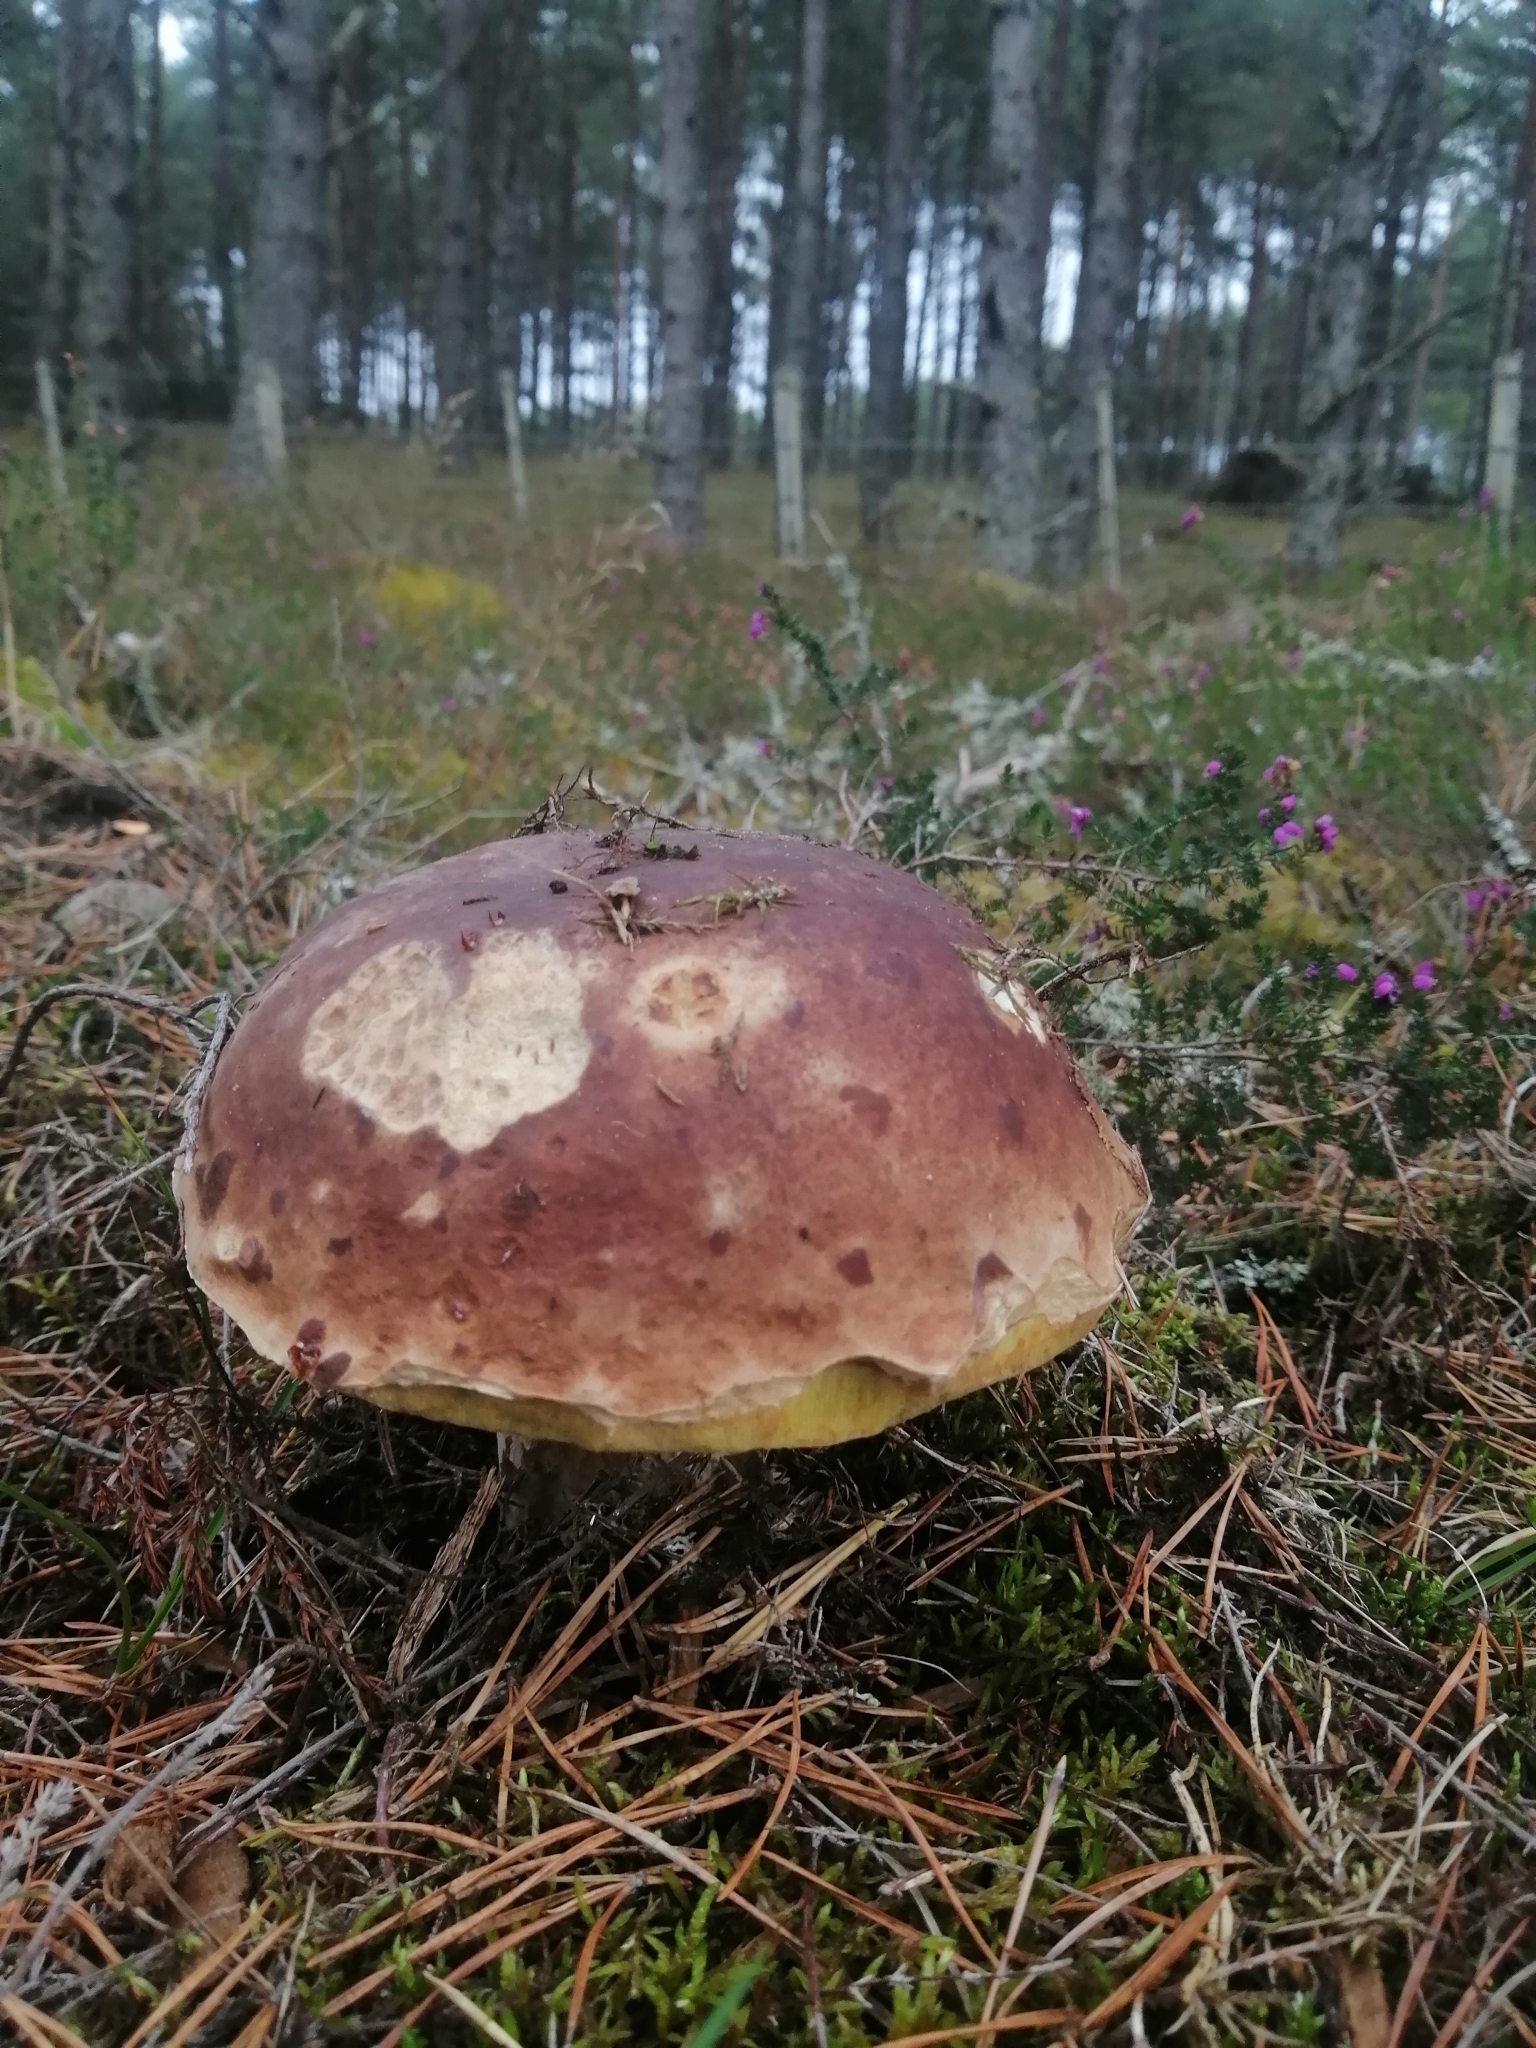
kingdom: Fungi
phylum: Basidiomycota
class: Agaricomycetes
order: Boletales
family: Boletaceae
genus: Boletus
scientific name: Boletus pinophilus
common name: Pine bolete
